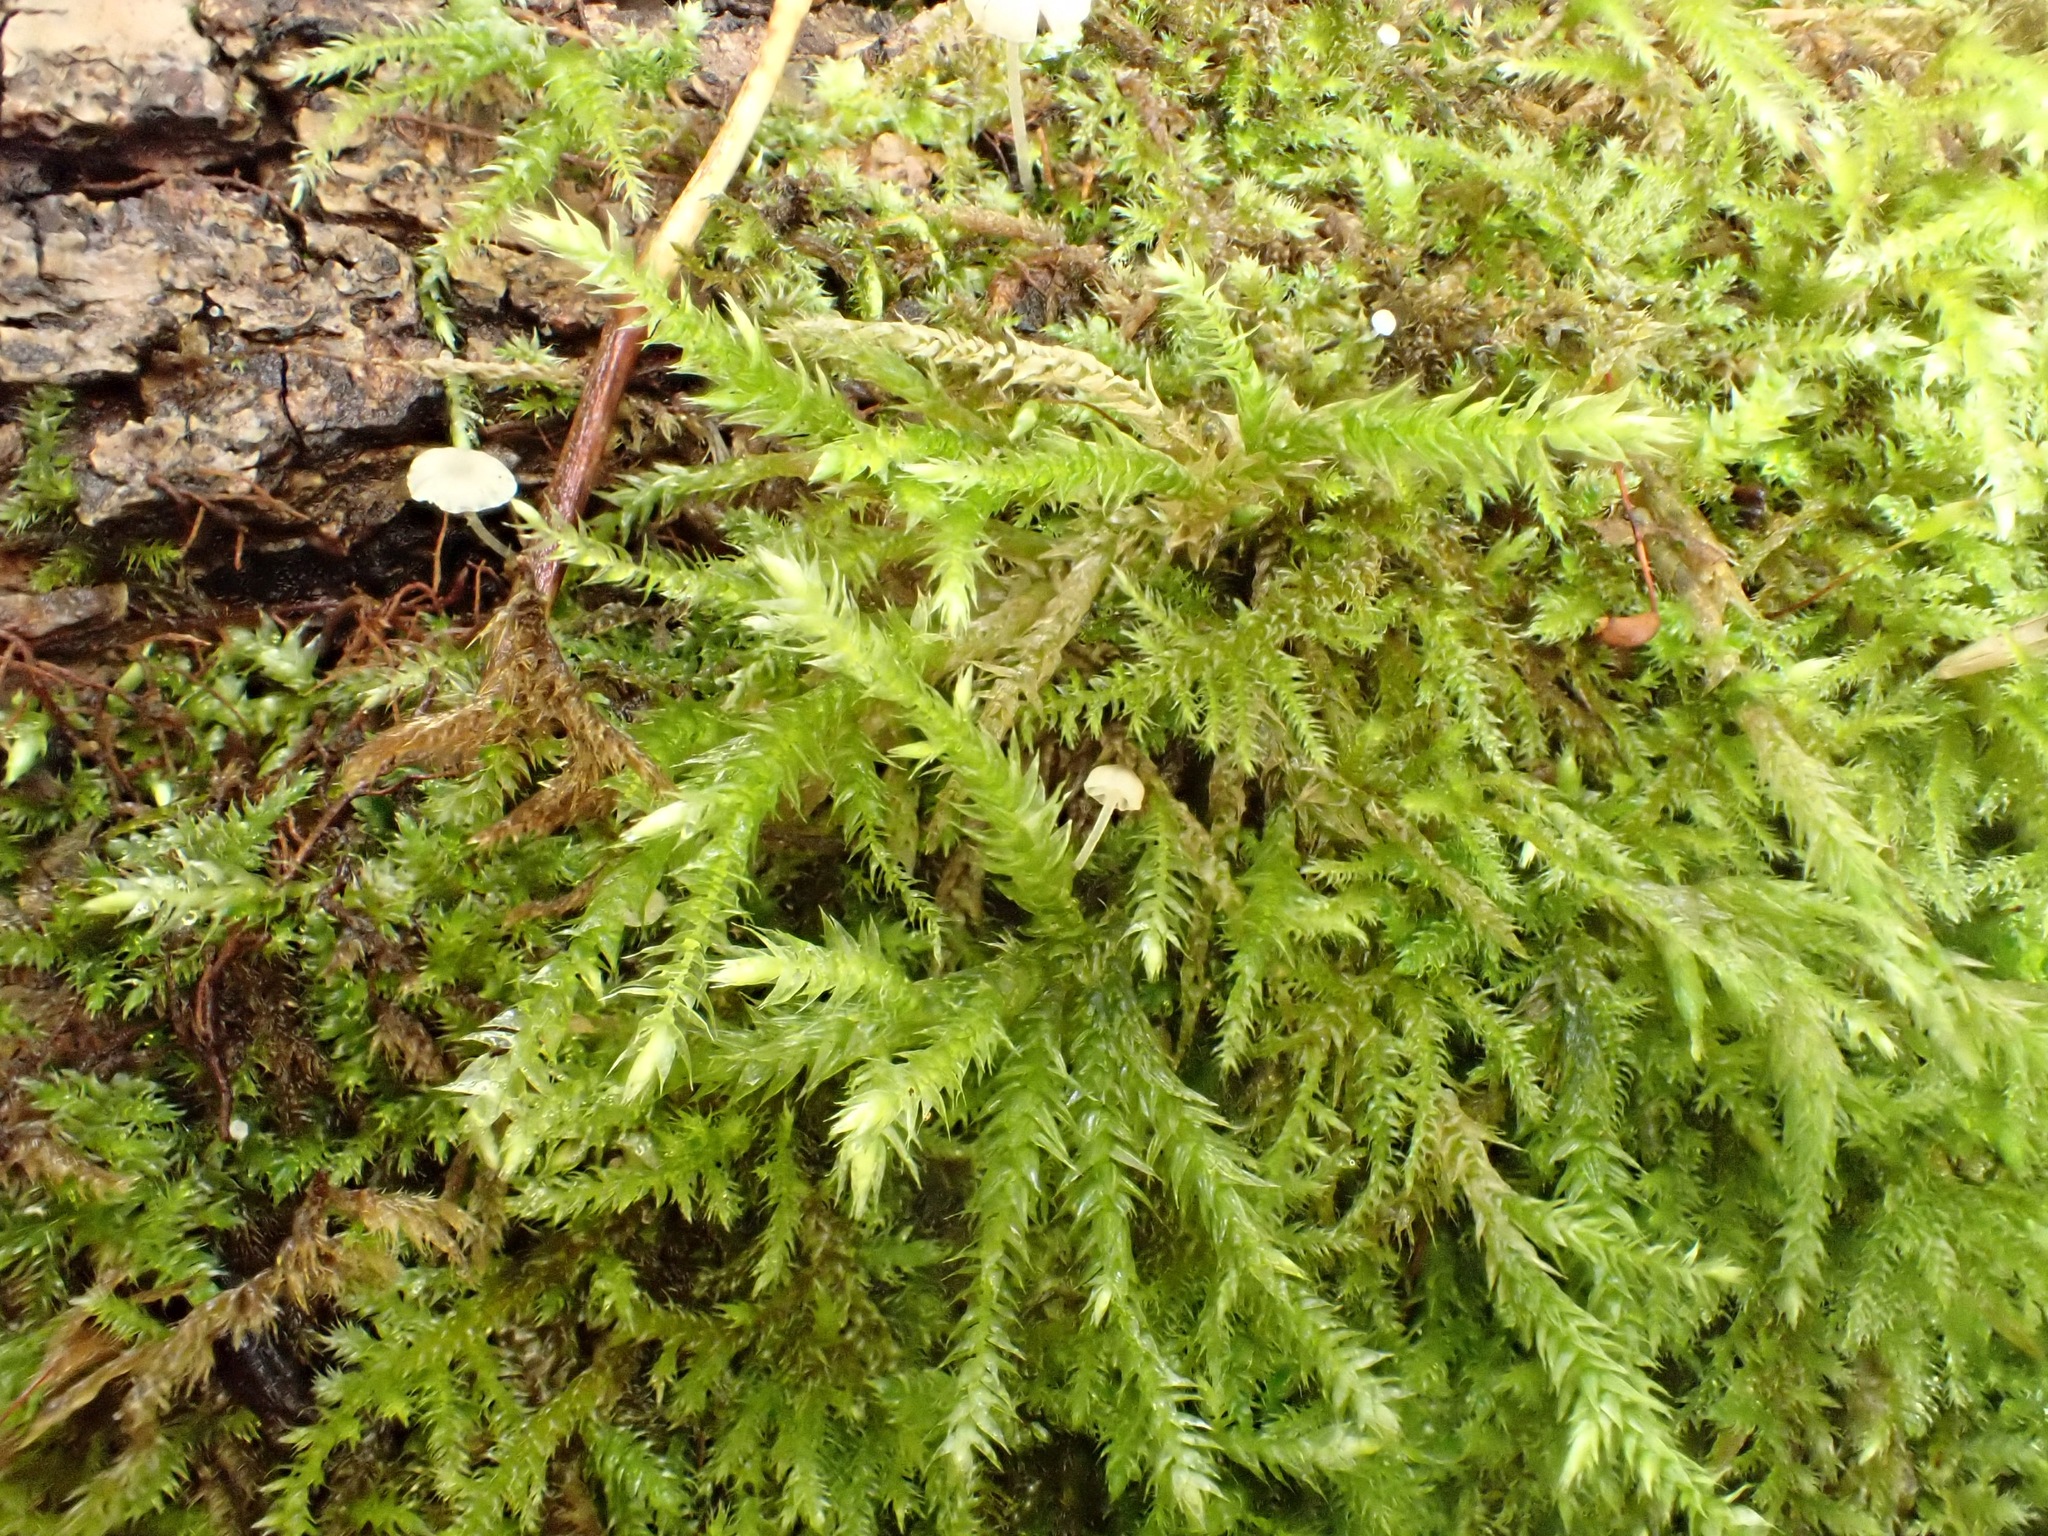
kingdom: Plantae
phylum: Bryophyta
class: Bryopsida
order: Hypnales
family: Brachytheciaceae
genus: Brachythecium
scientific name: Brachythecium rutabulum
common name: Rough-stalked feather-moss
